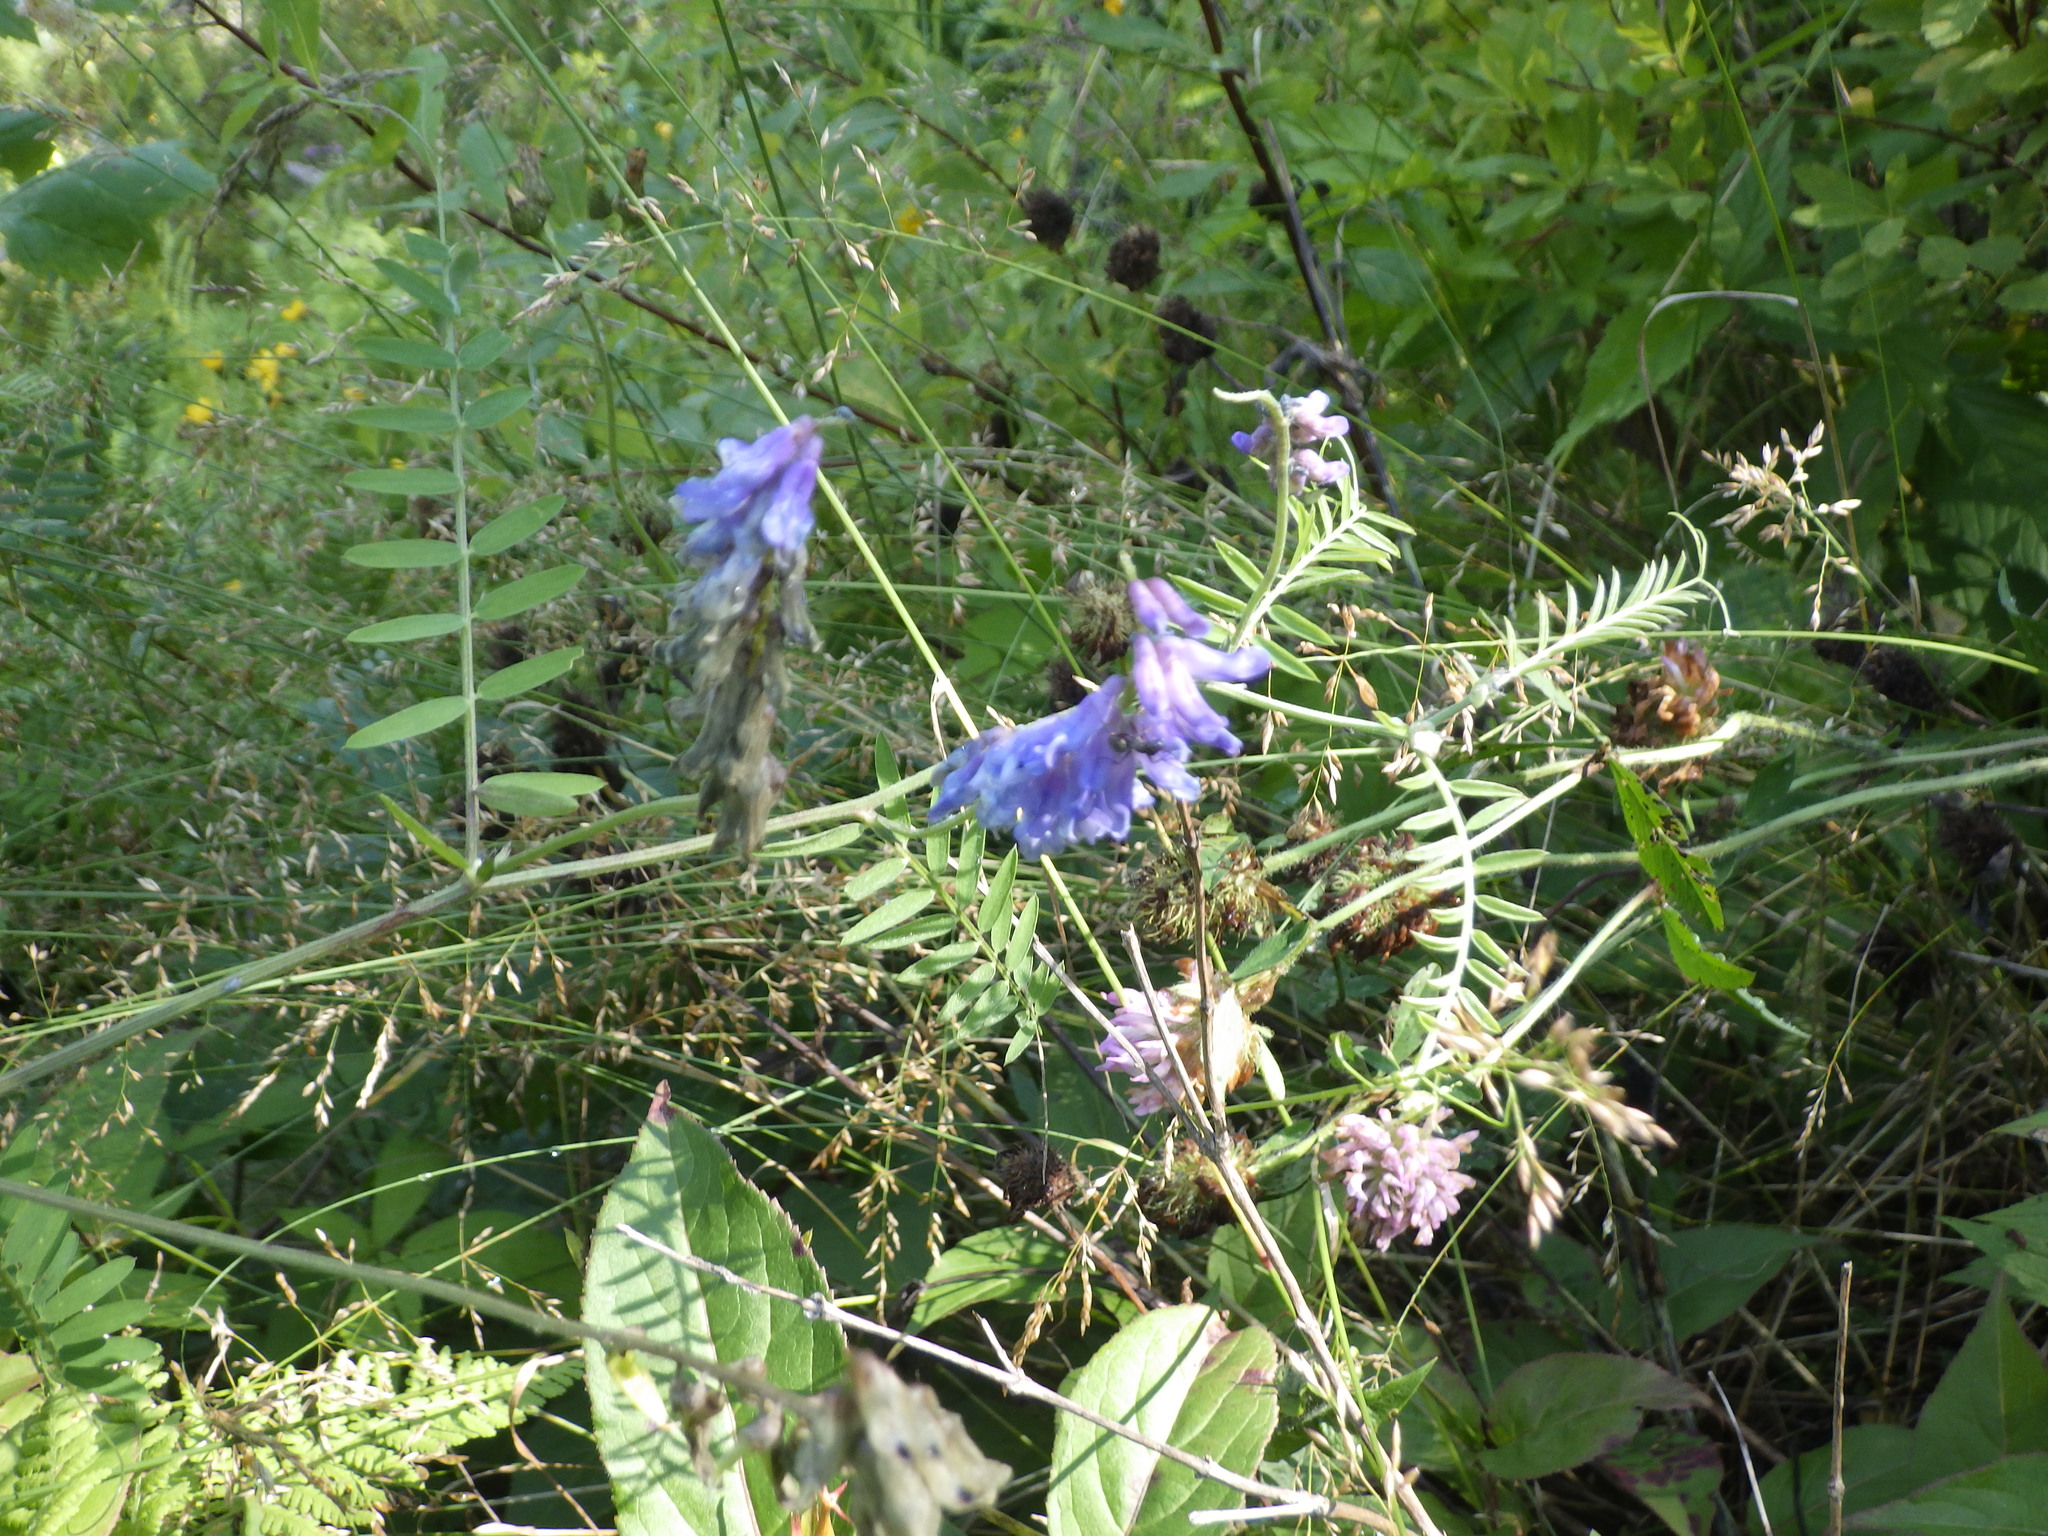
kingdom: Plantae
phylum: Tracheophyta
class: Magnoliopsida
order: Fabales
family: Fabaceae
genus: Vicia
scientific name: Vicia cracca
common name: Bird vetch
